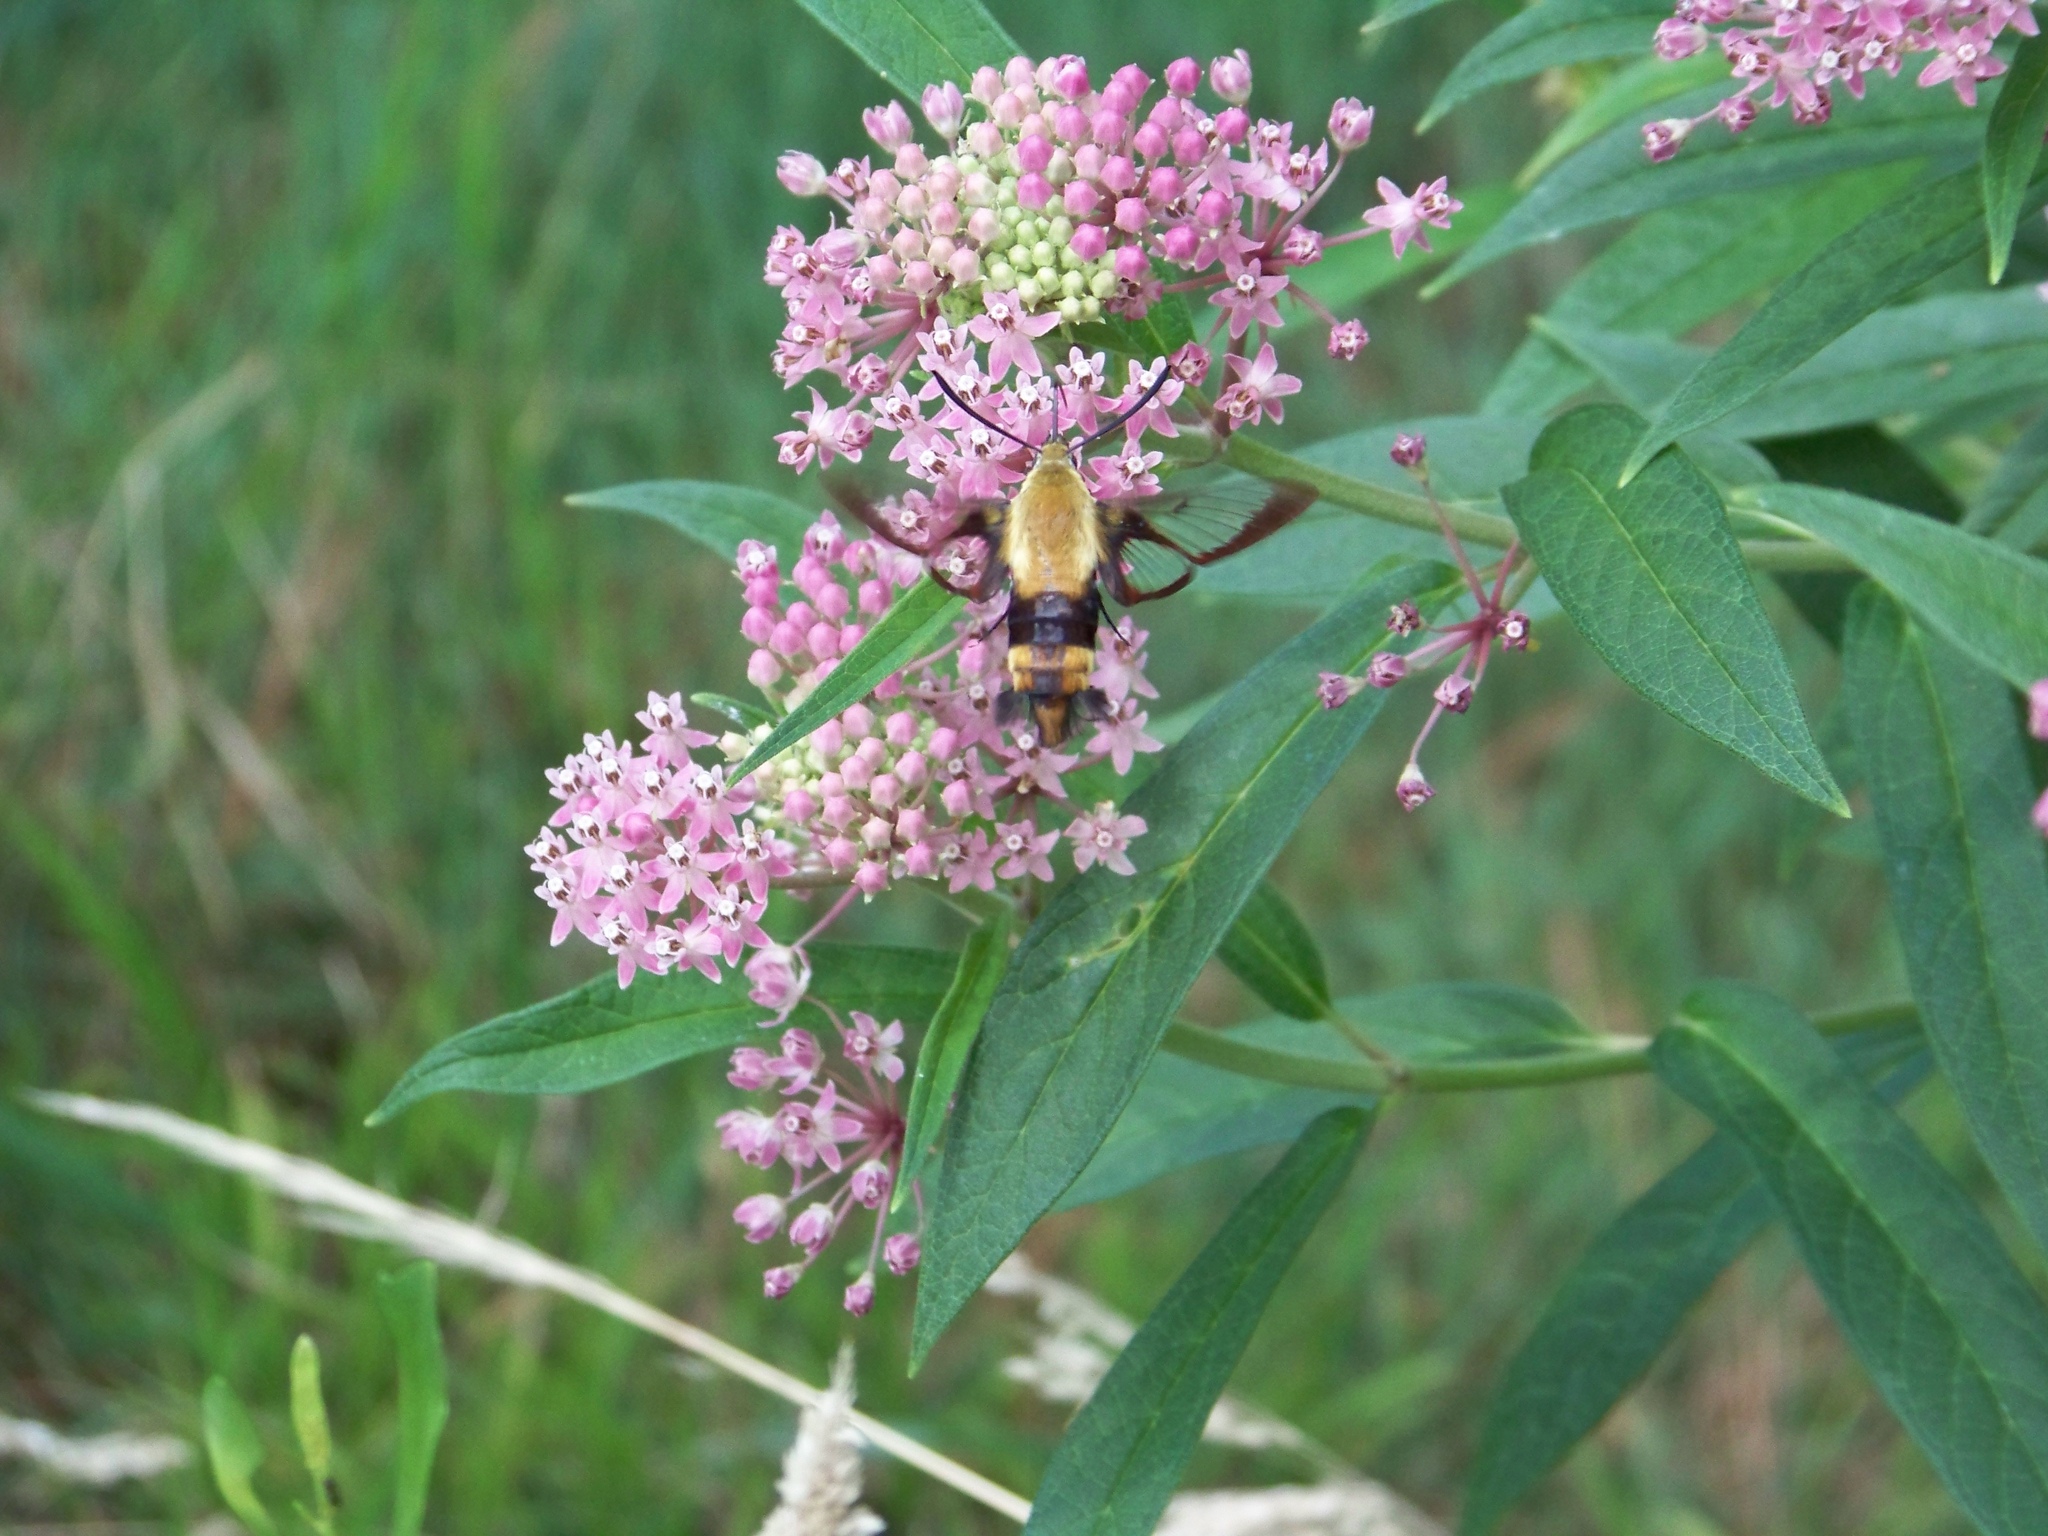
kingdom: Plantae
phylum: Tracheophyta
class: Magnoliopsida
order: Gentianales
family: Apocynaceae
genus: Asclepias
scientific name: Asclepias incarnata
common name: Swamp milkweed
